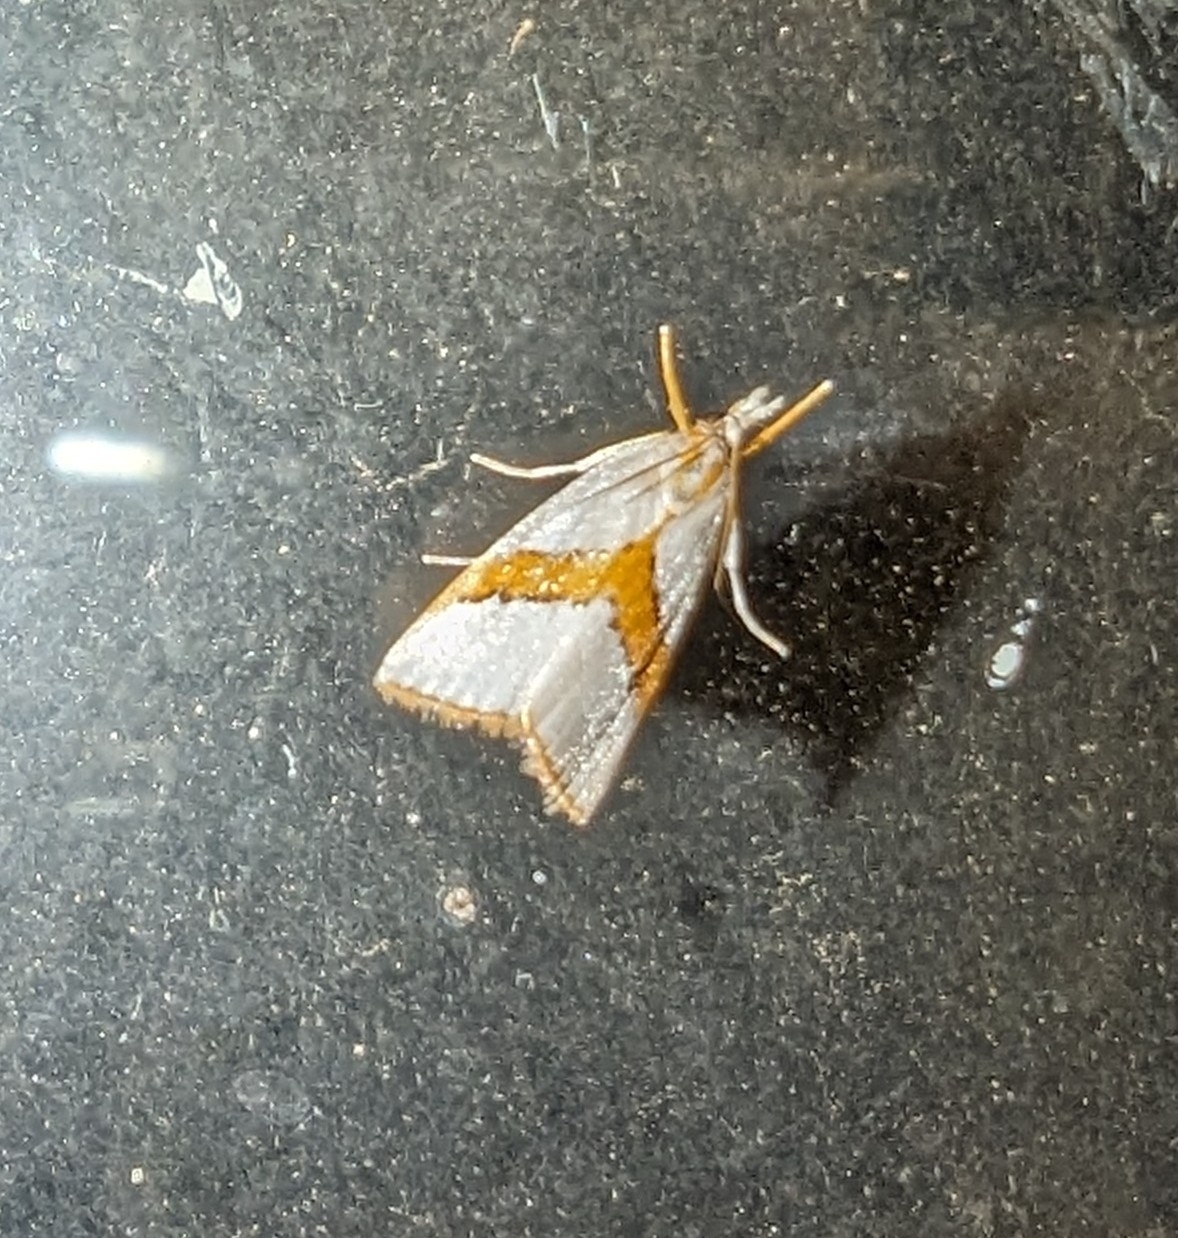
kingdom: Animalia
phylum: Arthropoda
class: Insecta
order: Lepidoptera
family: Crambidae
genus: Vaxi
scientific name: Vaxi critica
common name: Straight-lined vaxi moth
